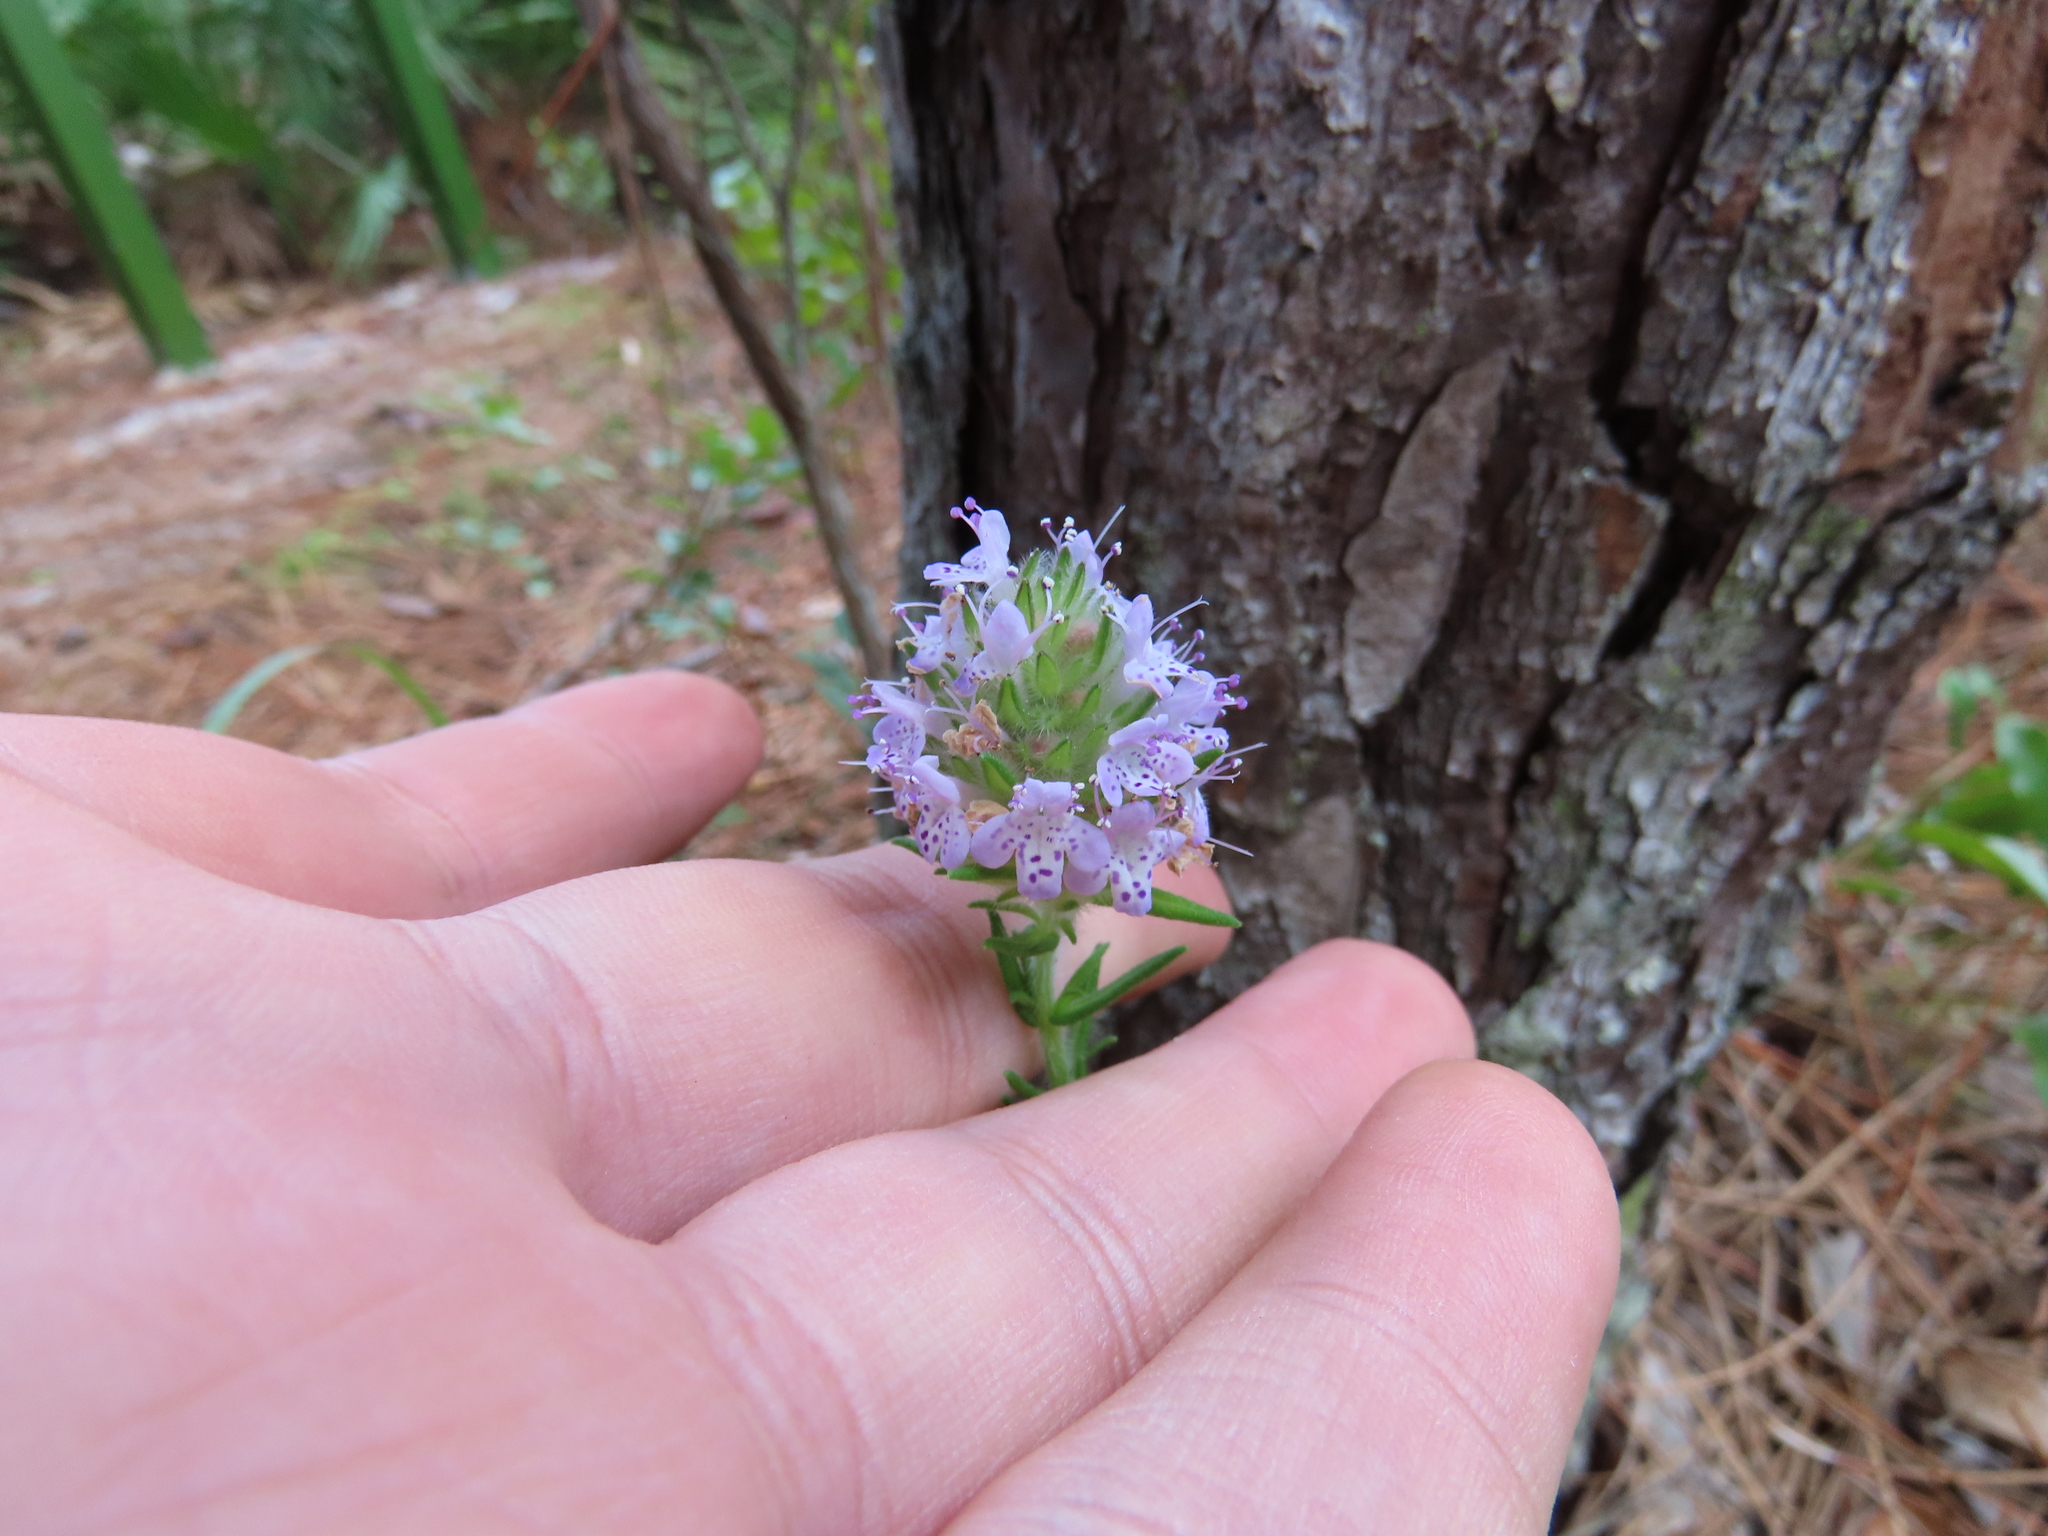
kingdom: Plantae
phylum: Tracheophyta
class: Magnoliopsida
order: Lamiales
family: Lamiaceae
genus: Piloblephis
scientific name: Piloblephis rigida
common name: Wild pennyroyal
